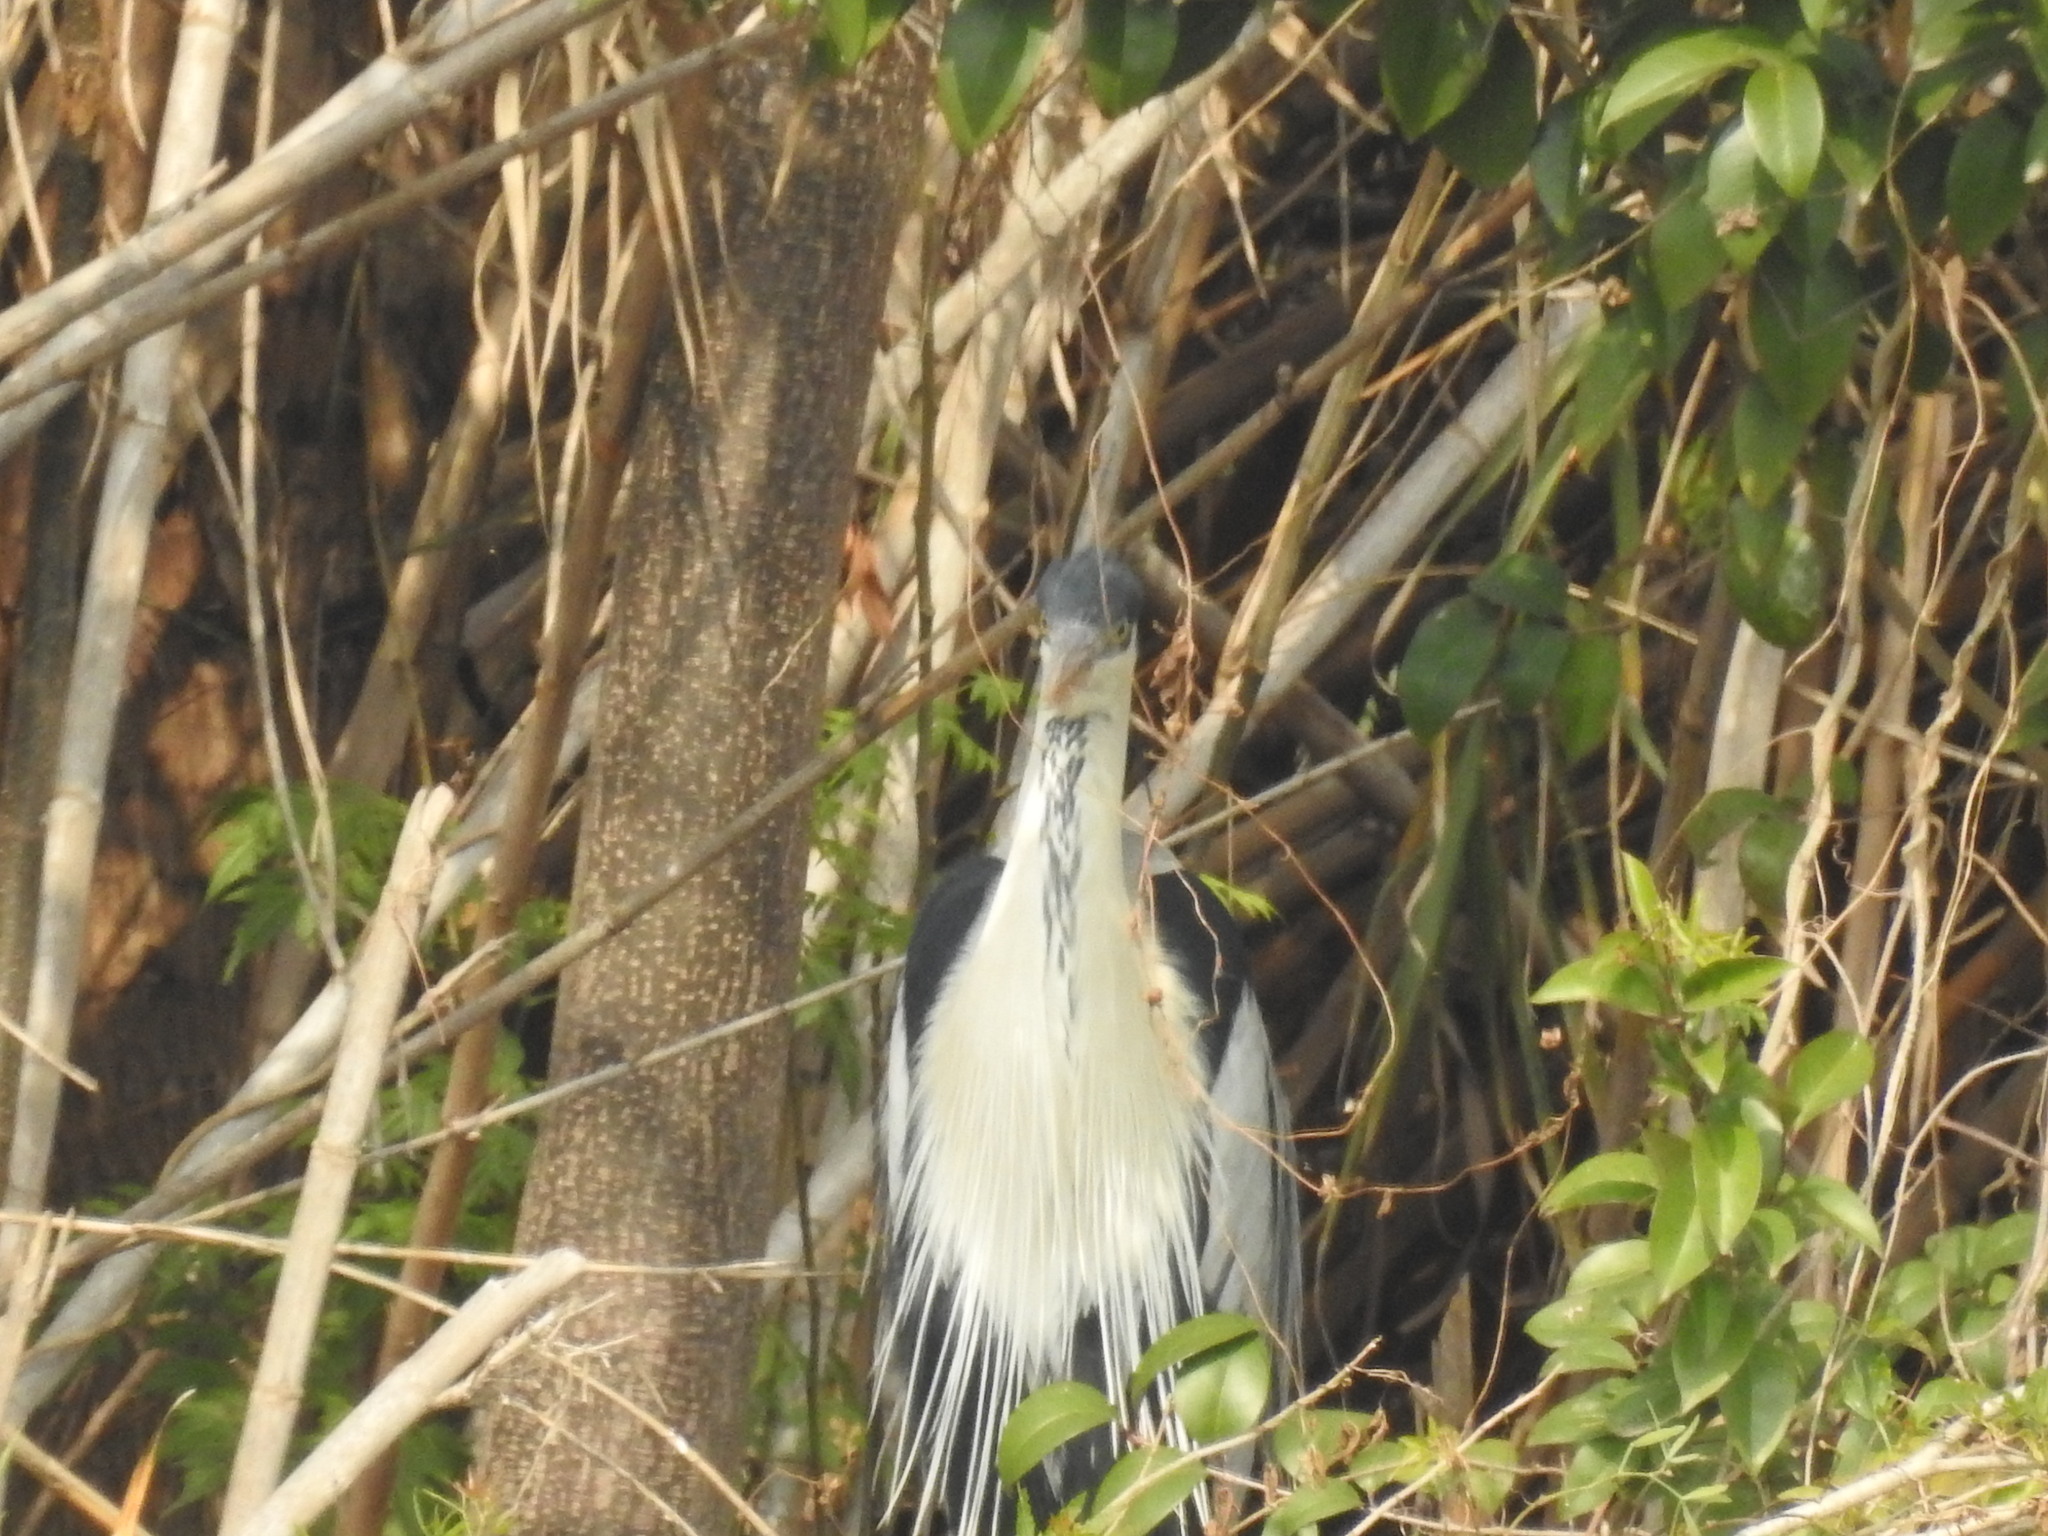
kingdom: Animalia
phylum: Chordata
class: Aves
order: Pelecaniformes
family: Ardeidae
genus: Ardea
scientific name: Ardea cocoi
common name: Cocoi heron
